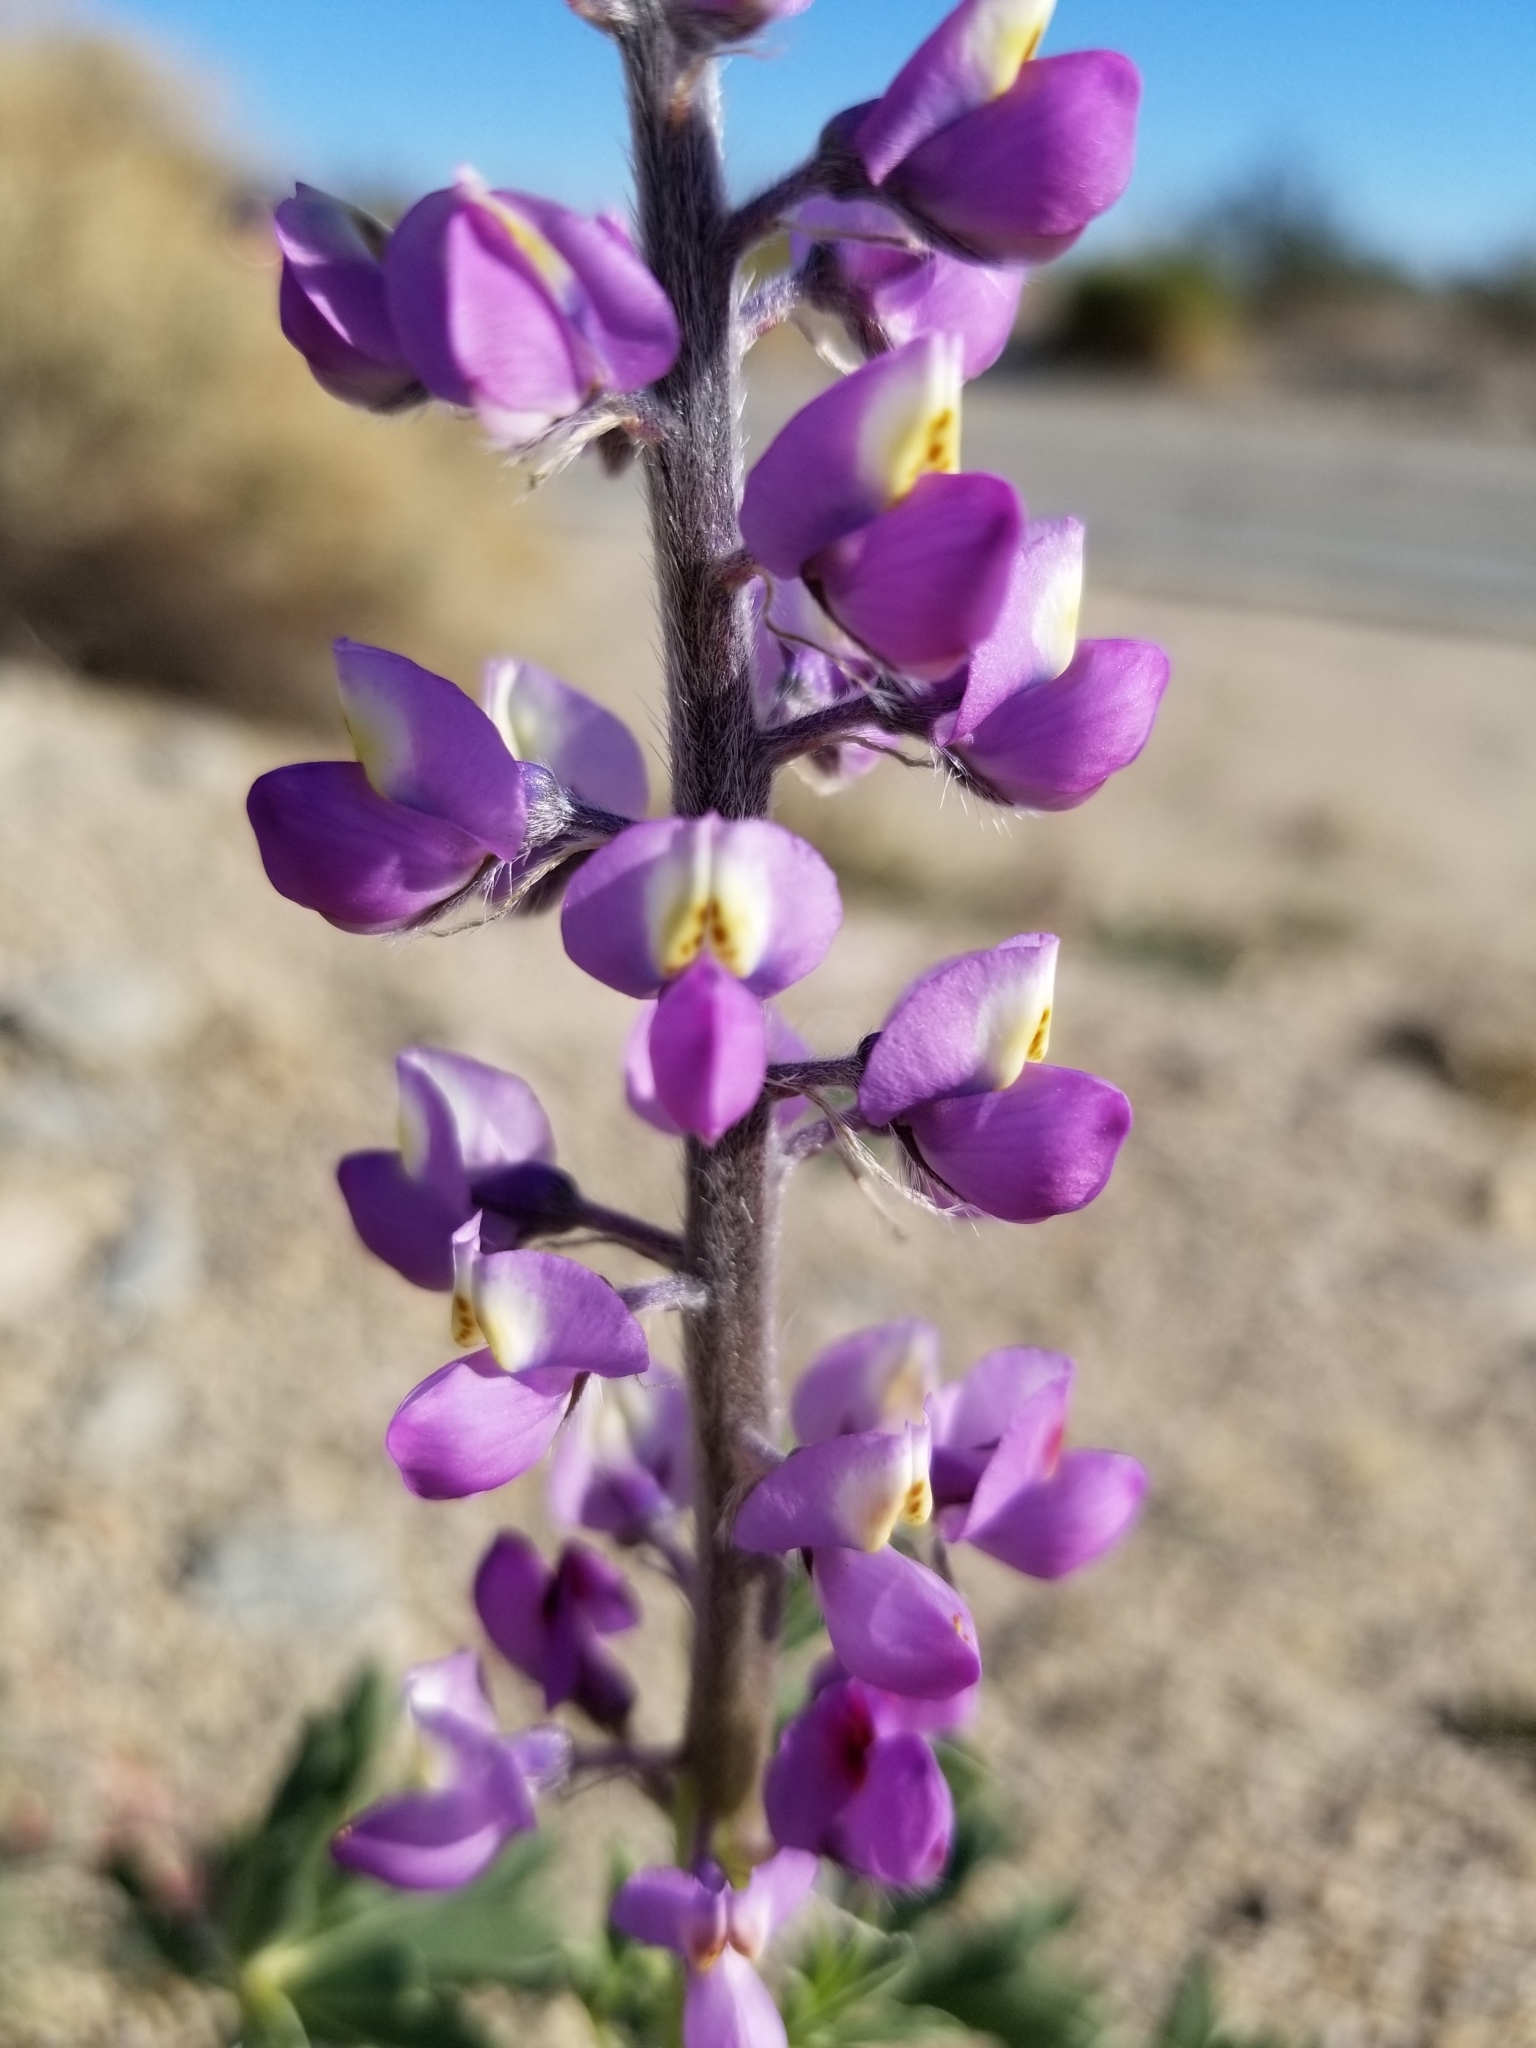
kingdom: Plantae
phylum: Tracheophyta
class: Magnoliopsida
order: Fabales
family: Fabaceae
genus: Lupinus
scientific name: Lupinus arizonicus
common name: Arizona lupine
